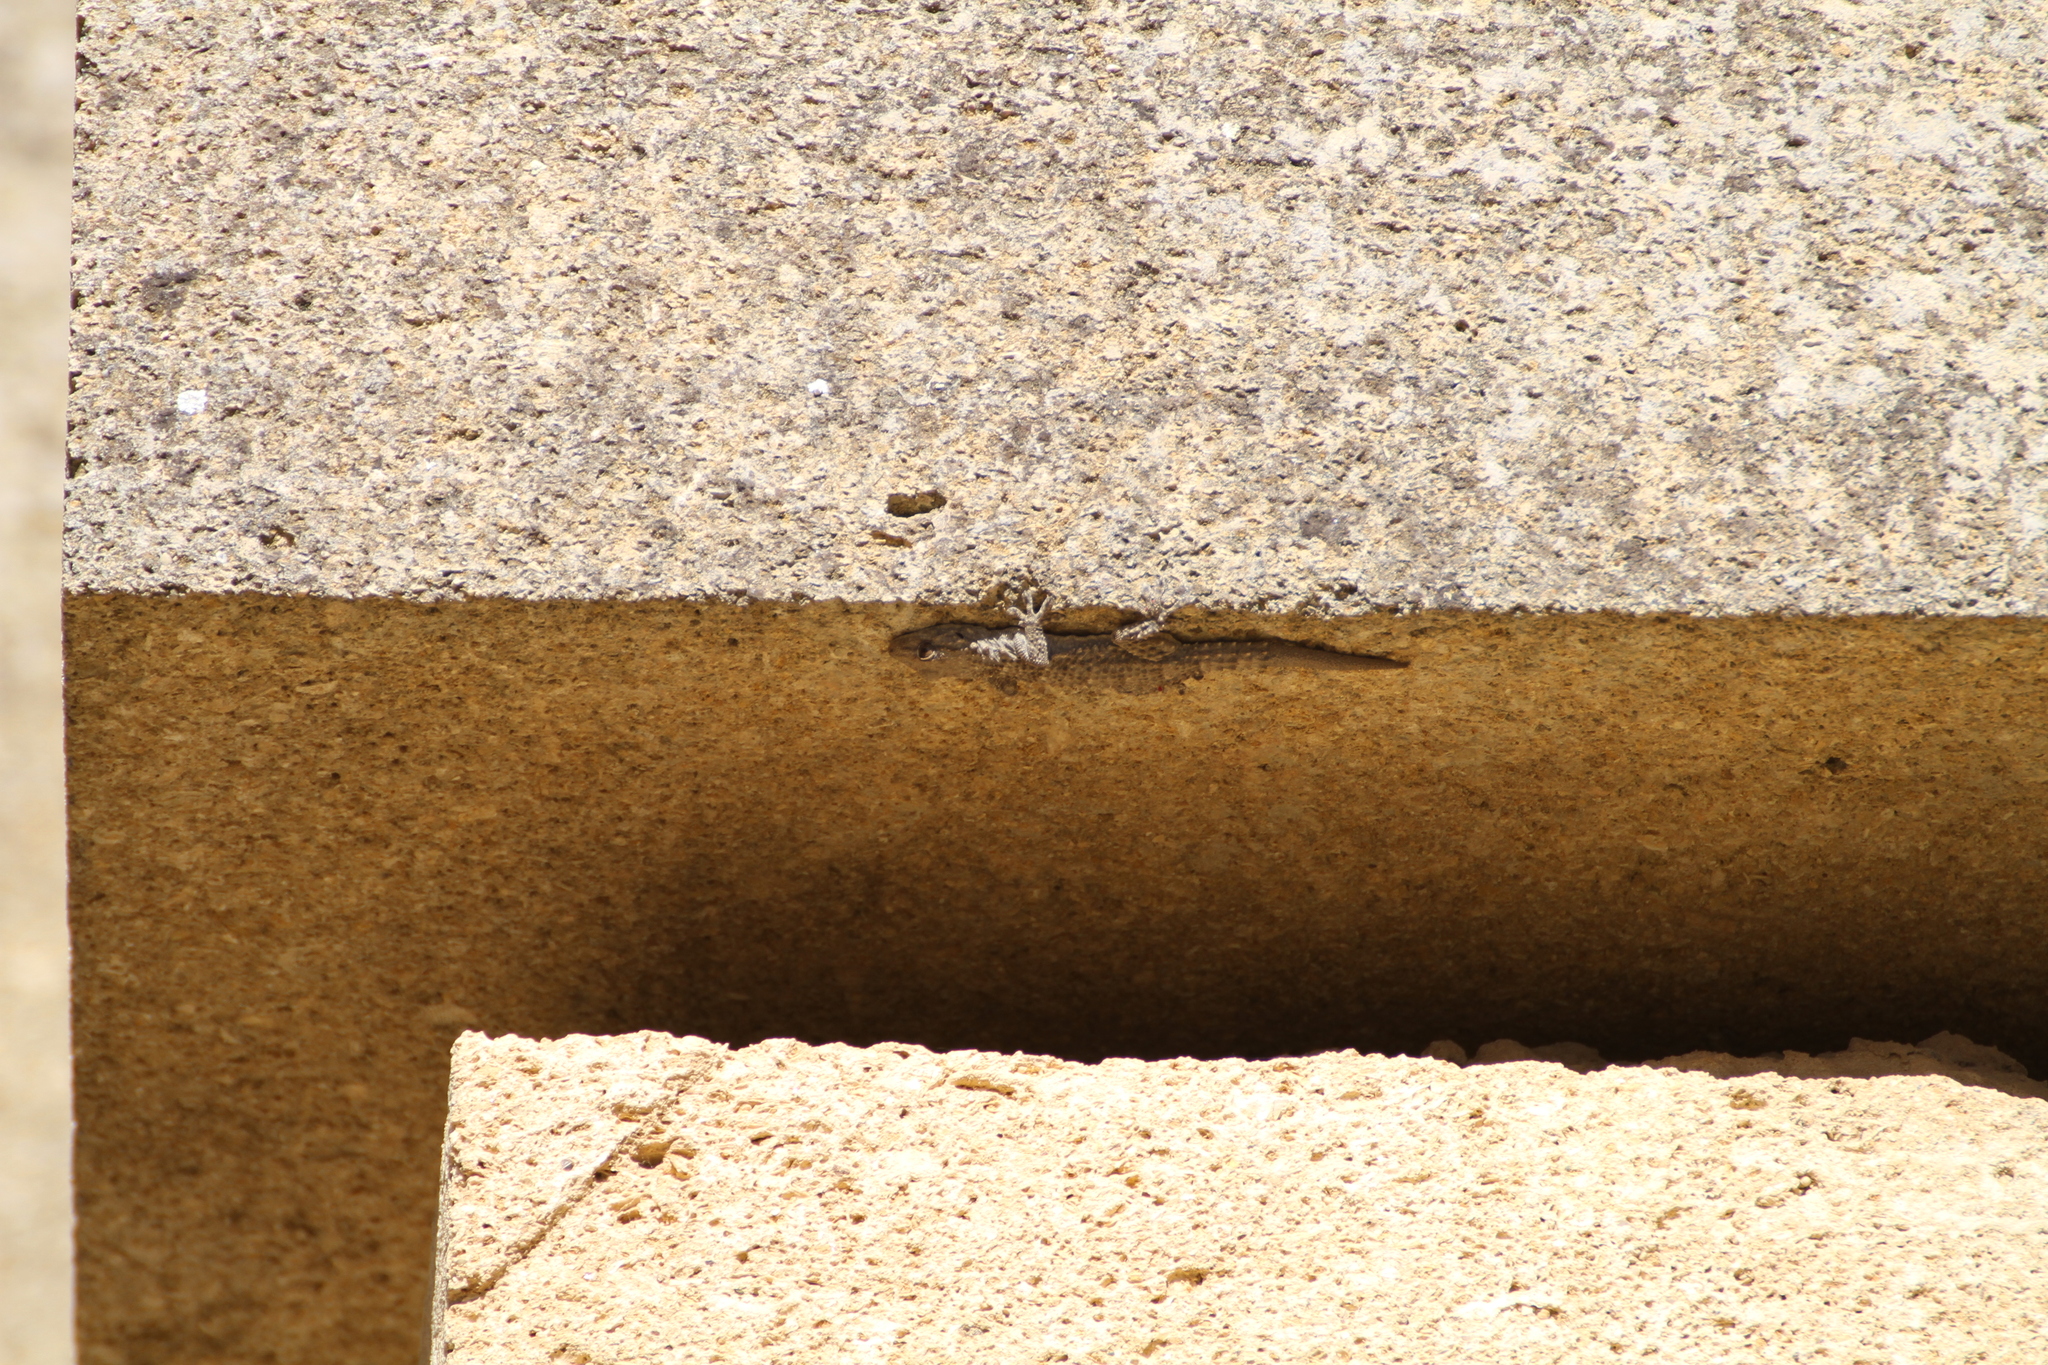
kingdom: Animalia
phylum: Chordata
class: Squamata
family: Phyllodactylidae
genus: Tarentola
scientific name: Tarentola mauritanica
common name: Moorish gecko
